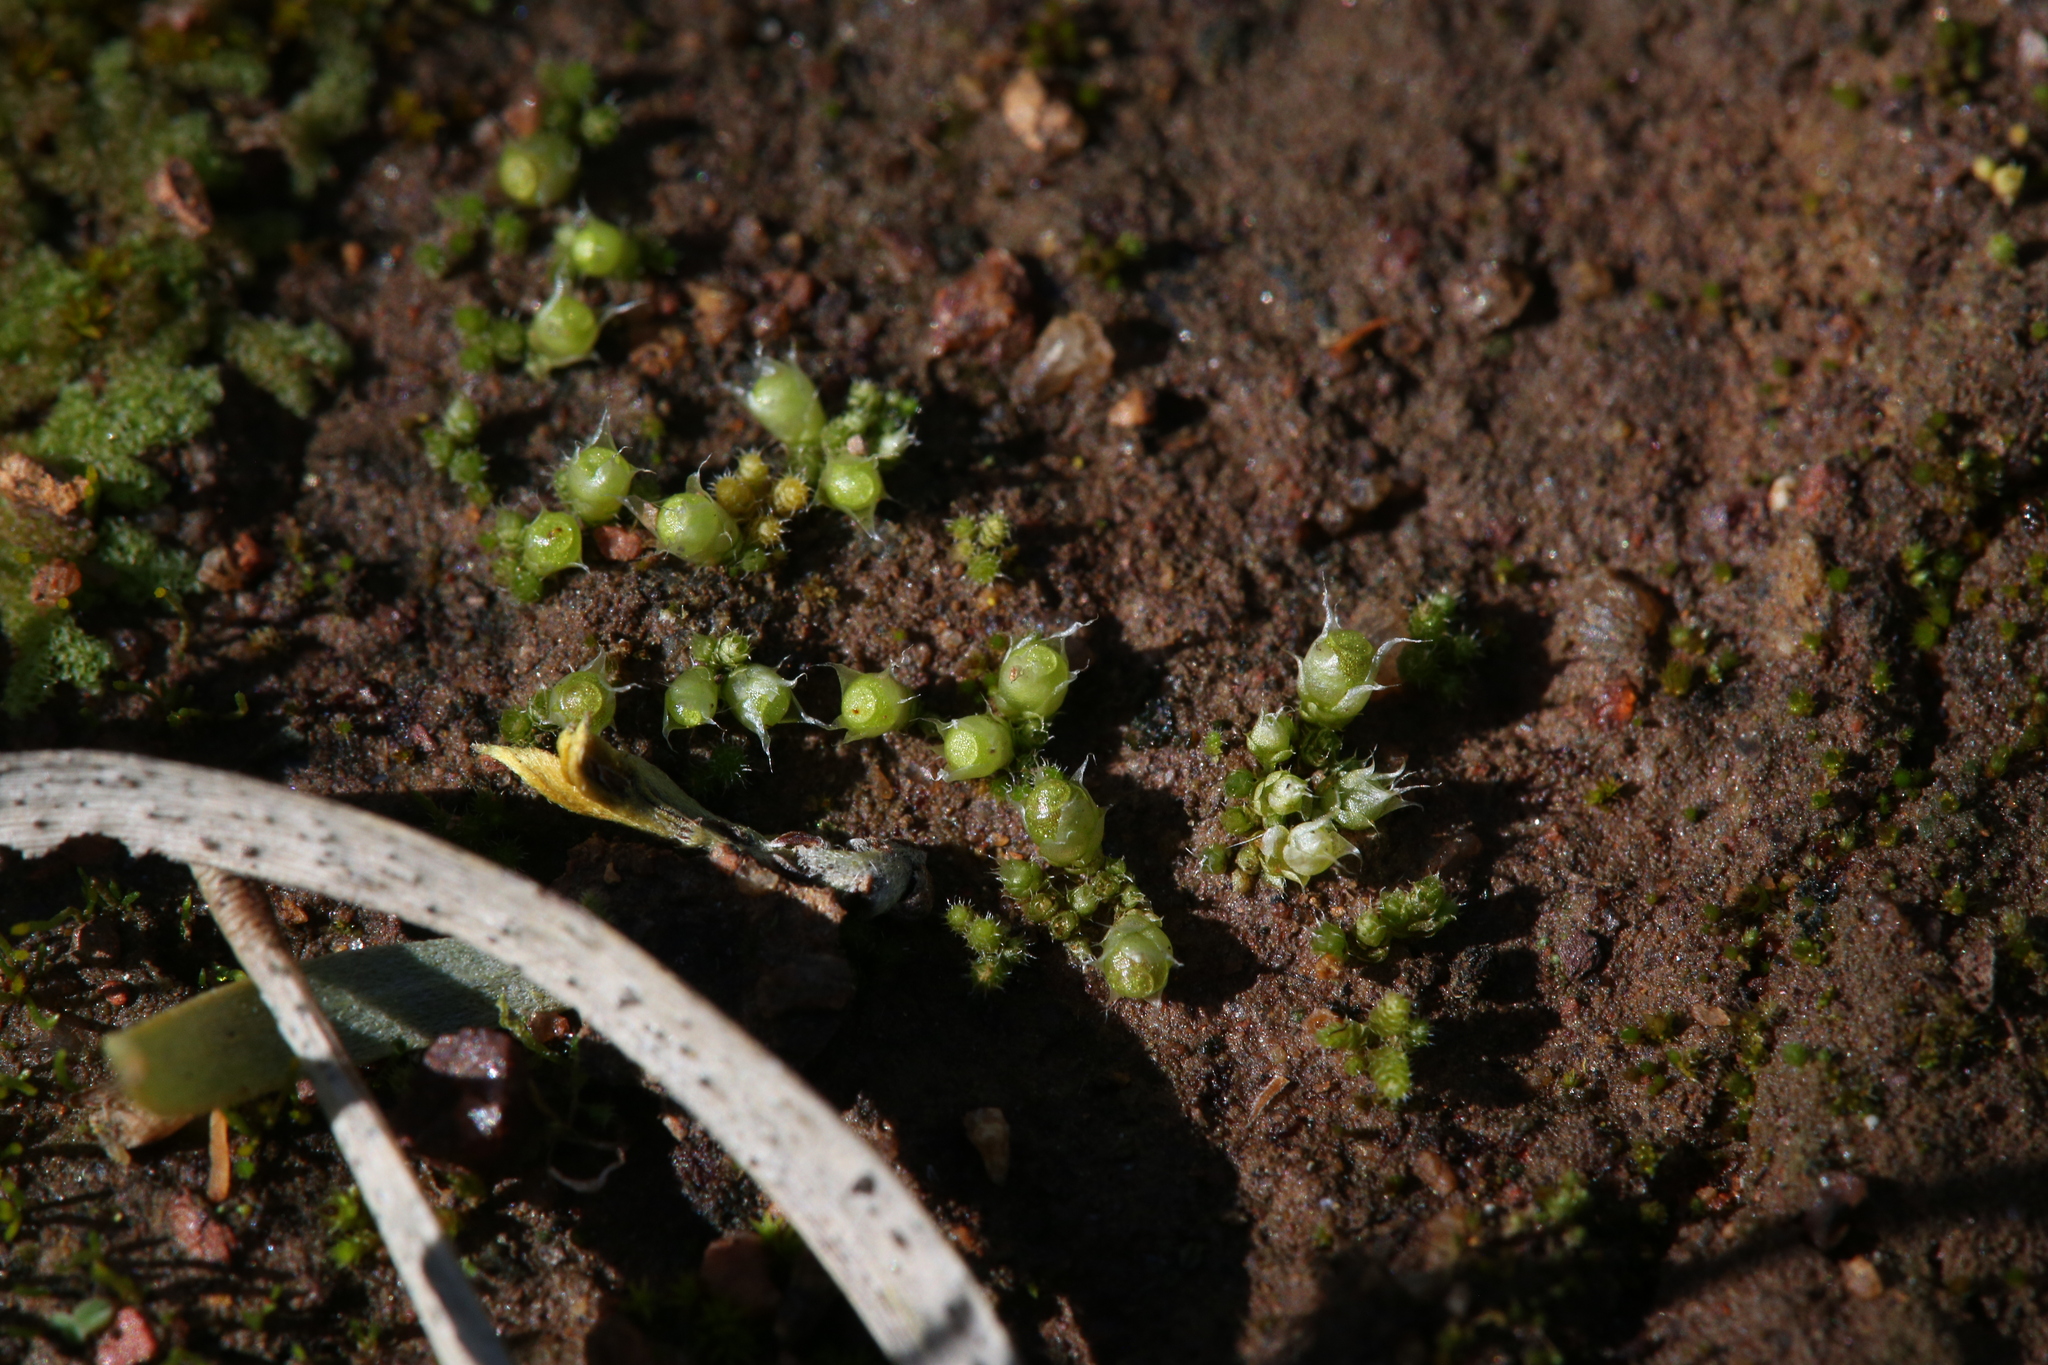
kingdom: Plantae
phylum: Bryophyta
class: Bryopsida
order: Gigaspermales
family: Gigaspermaceae
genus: Gigaspermum
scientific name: Gigaspermum repens
